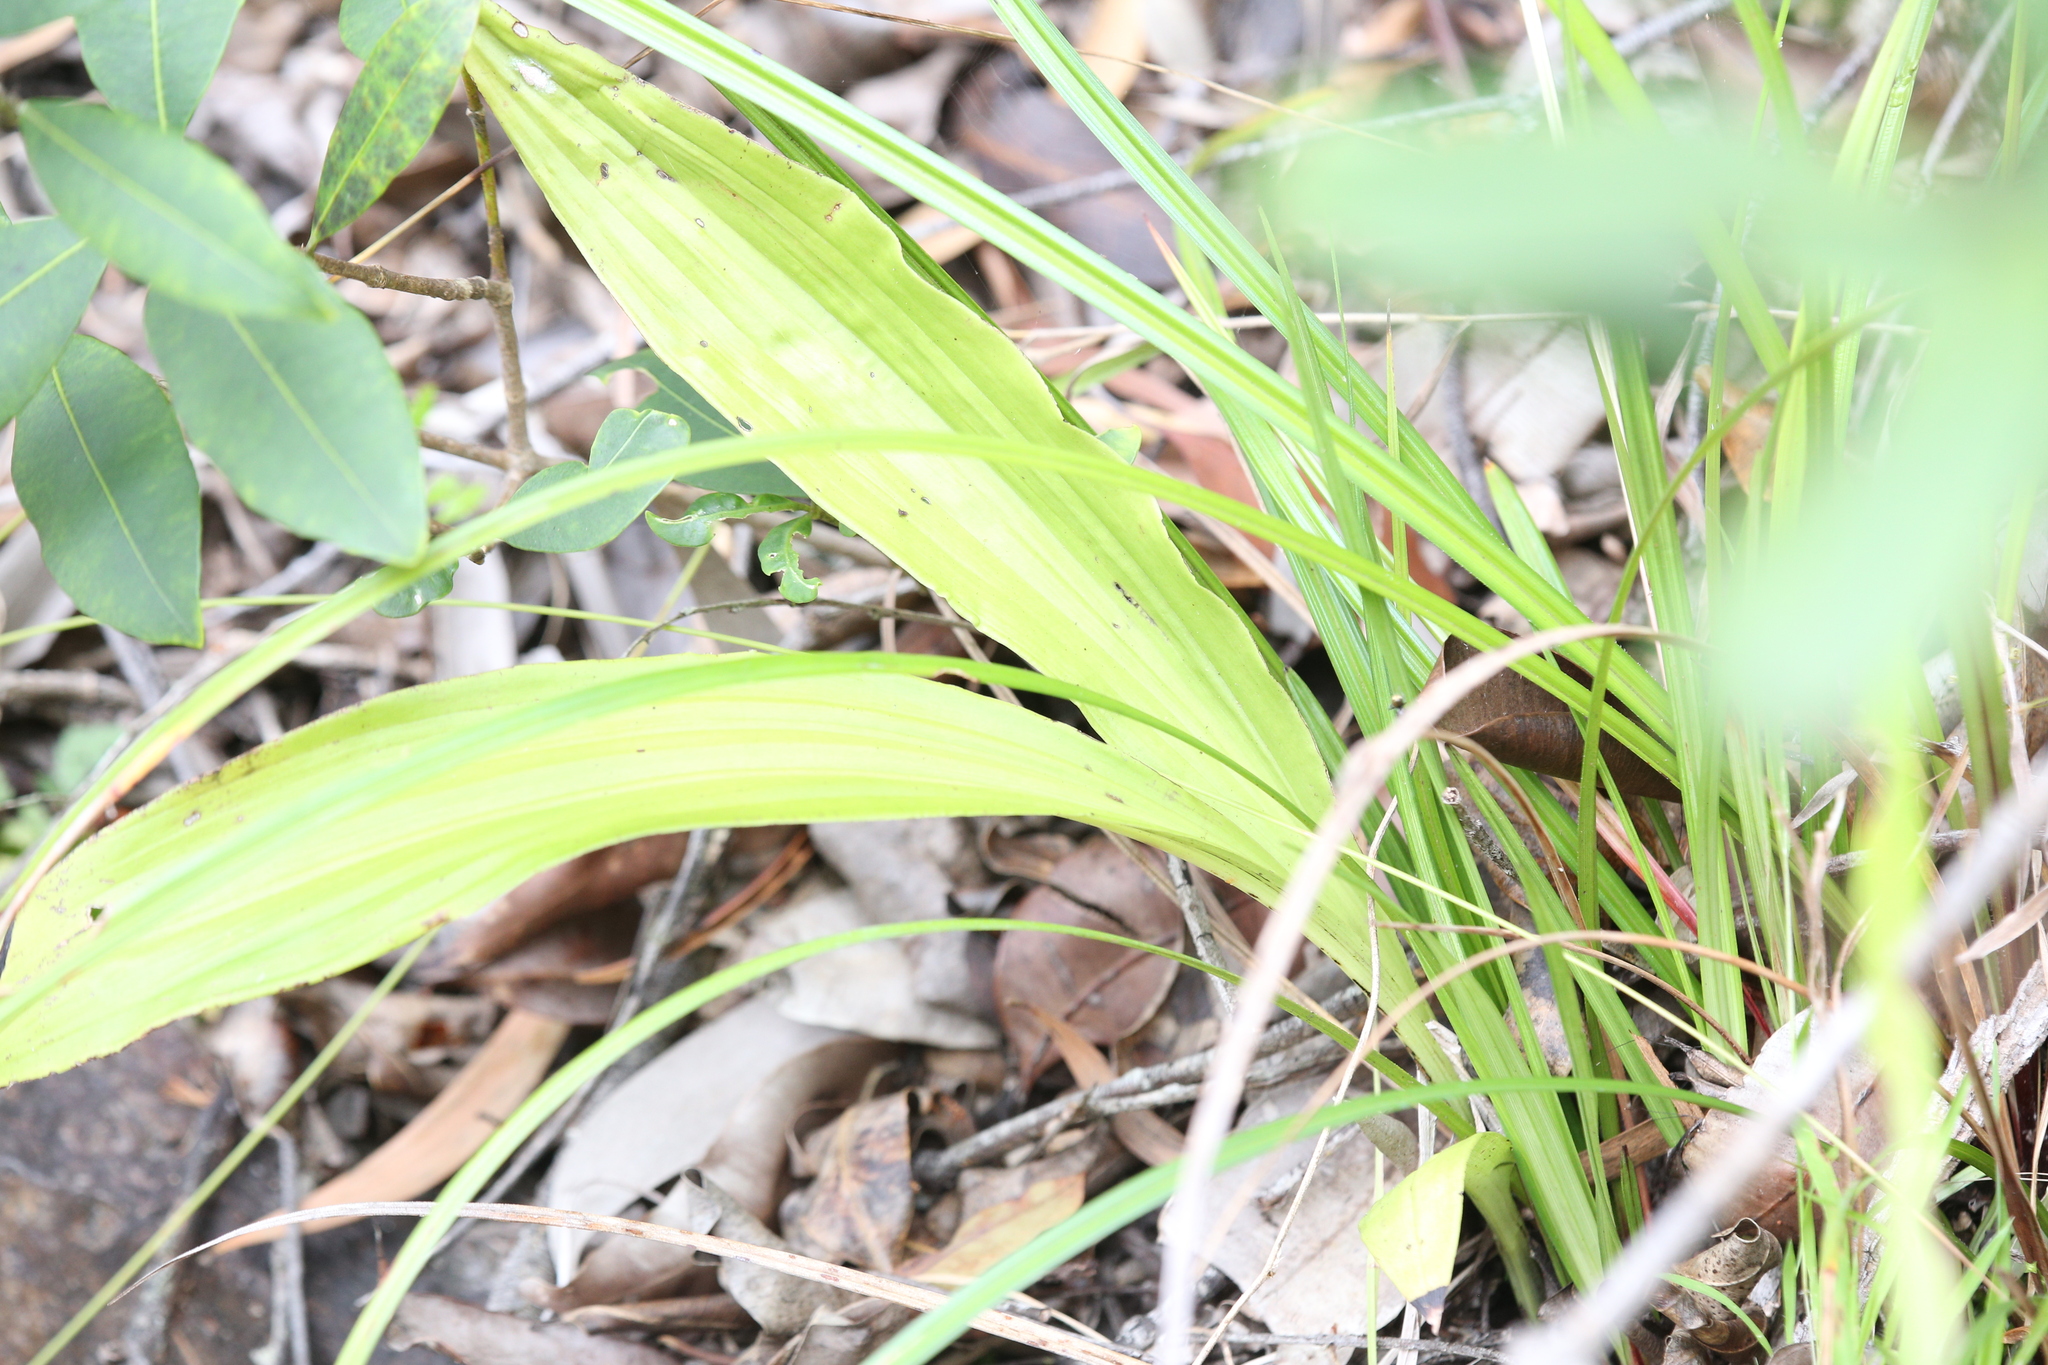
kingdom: Plantae
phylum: Tracheophyta
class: Liliopsida
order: Asparagales
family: Orchidaceae
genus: Eulophia
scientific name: Eulophia cernua
